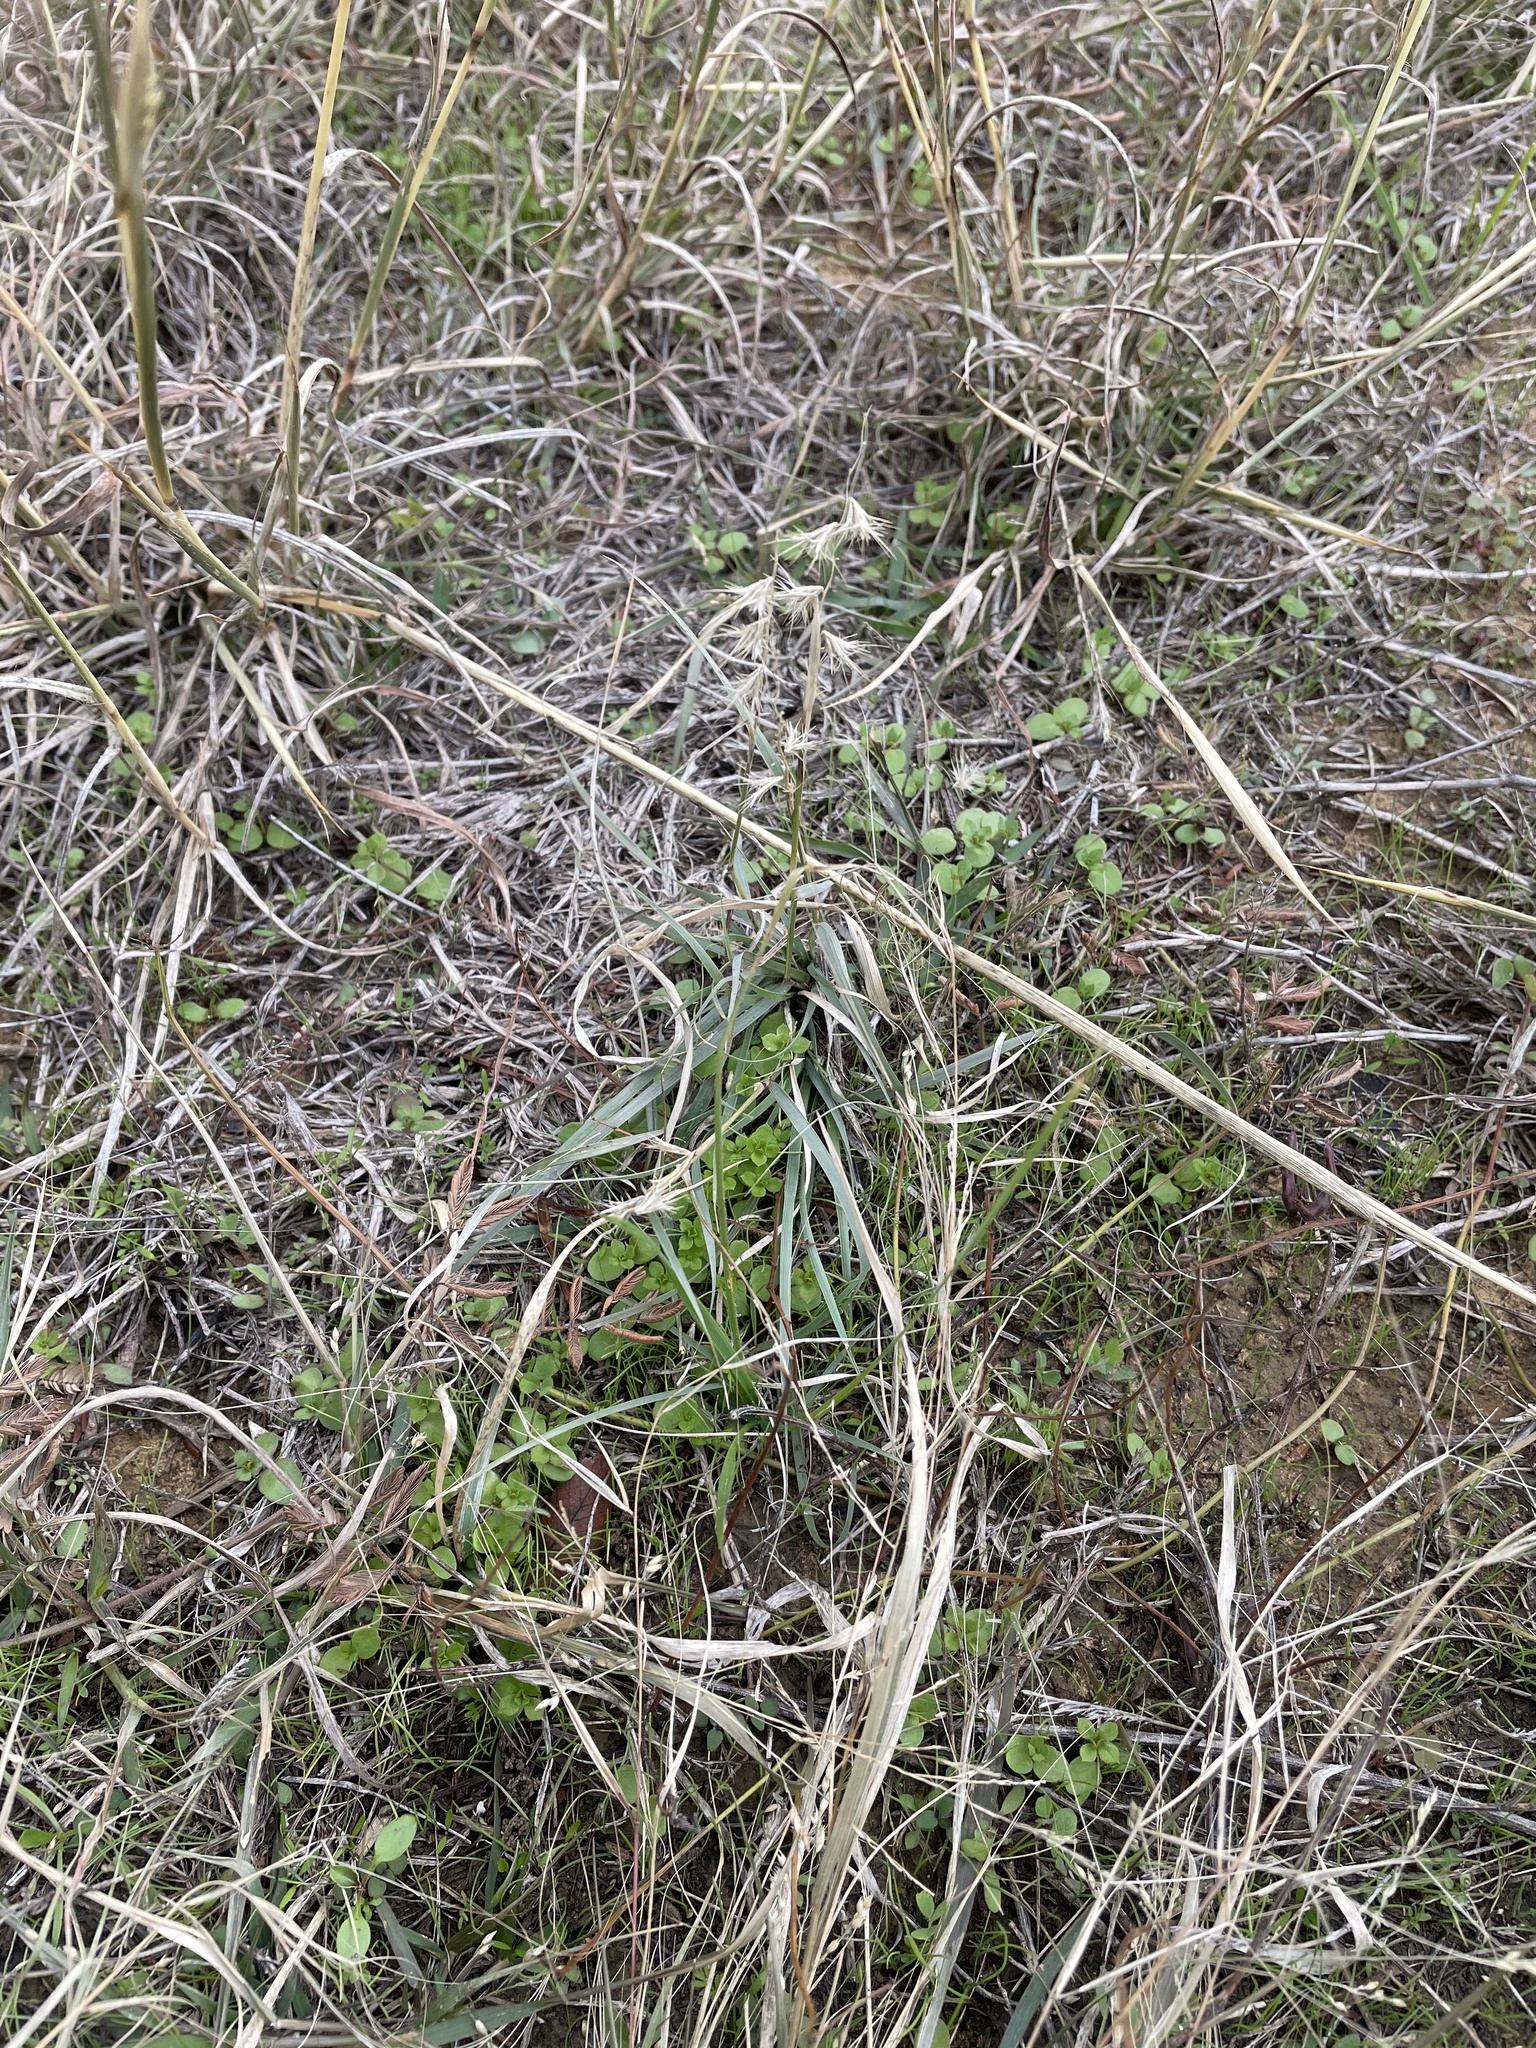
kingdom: Plantae
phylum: Tracheophyta
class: Liliopsida
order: Poales
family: Poaceae
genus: Bouteloua
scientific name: Bouteloua rigidiseta
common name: Texas grama
